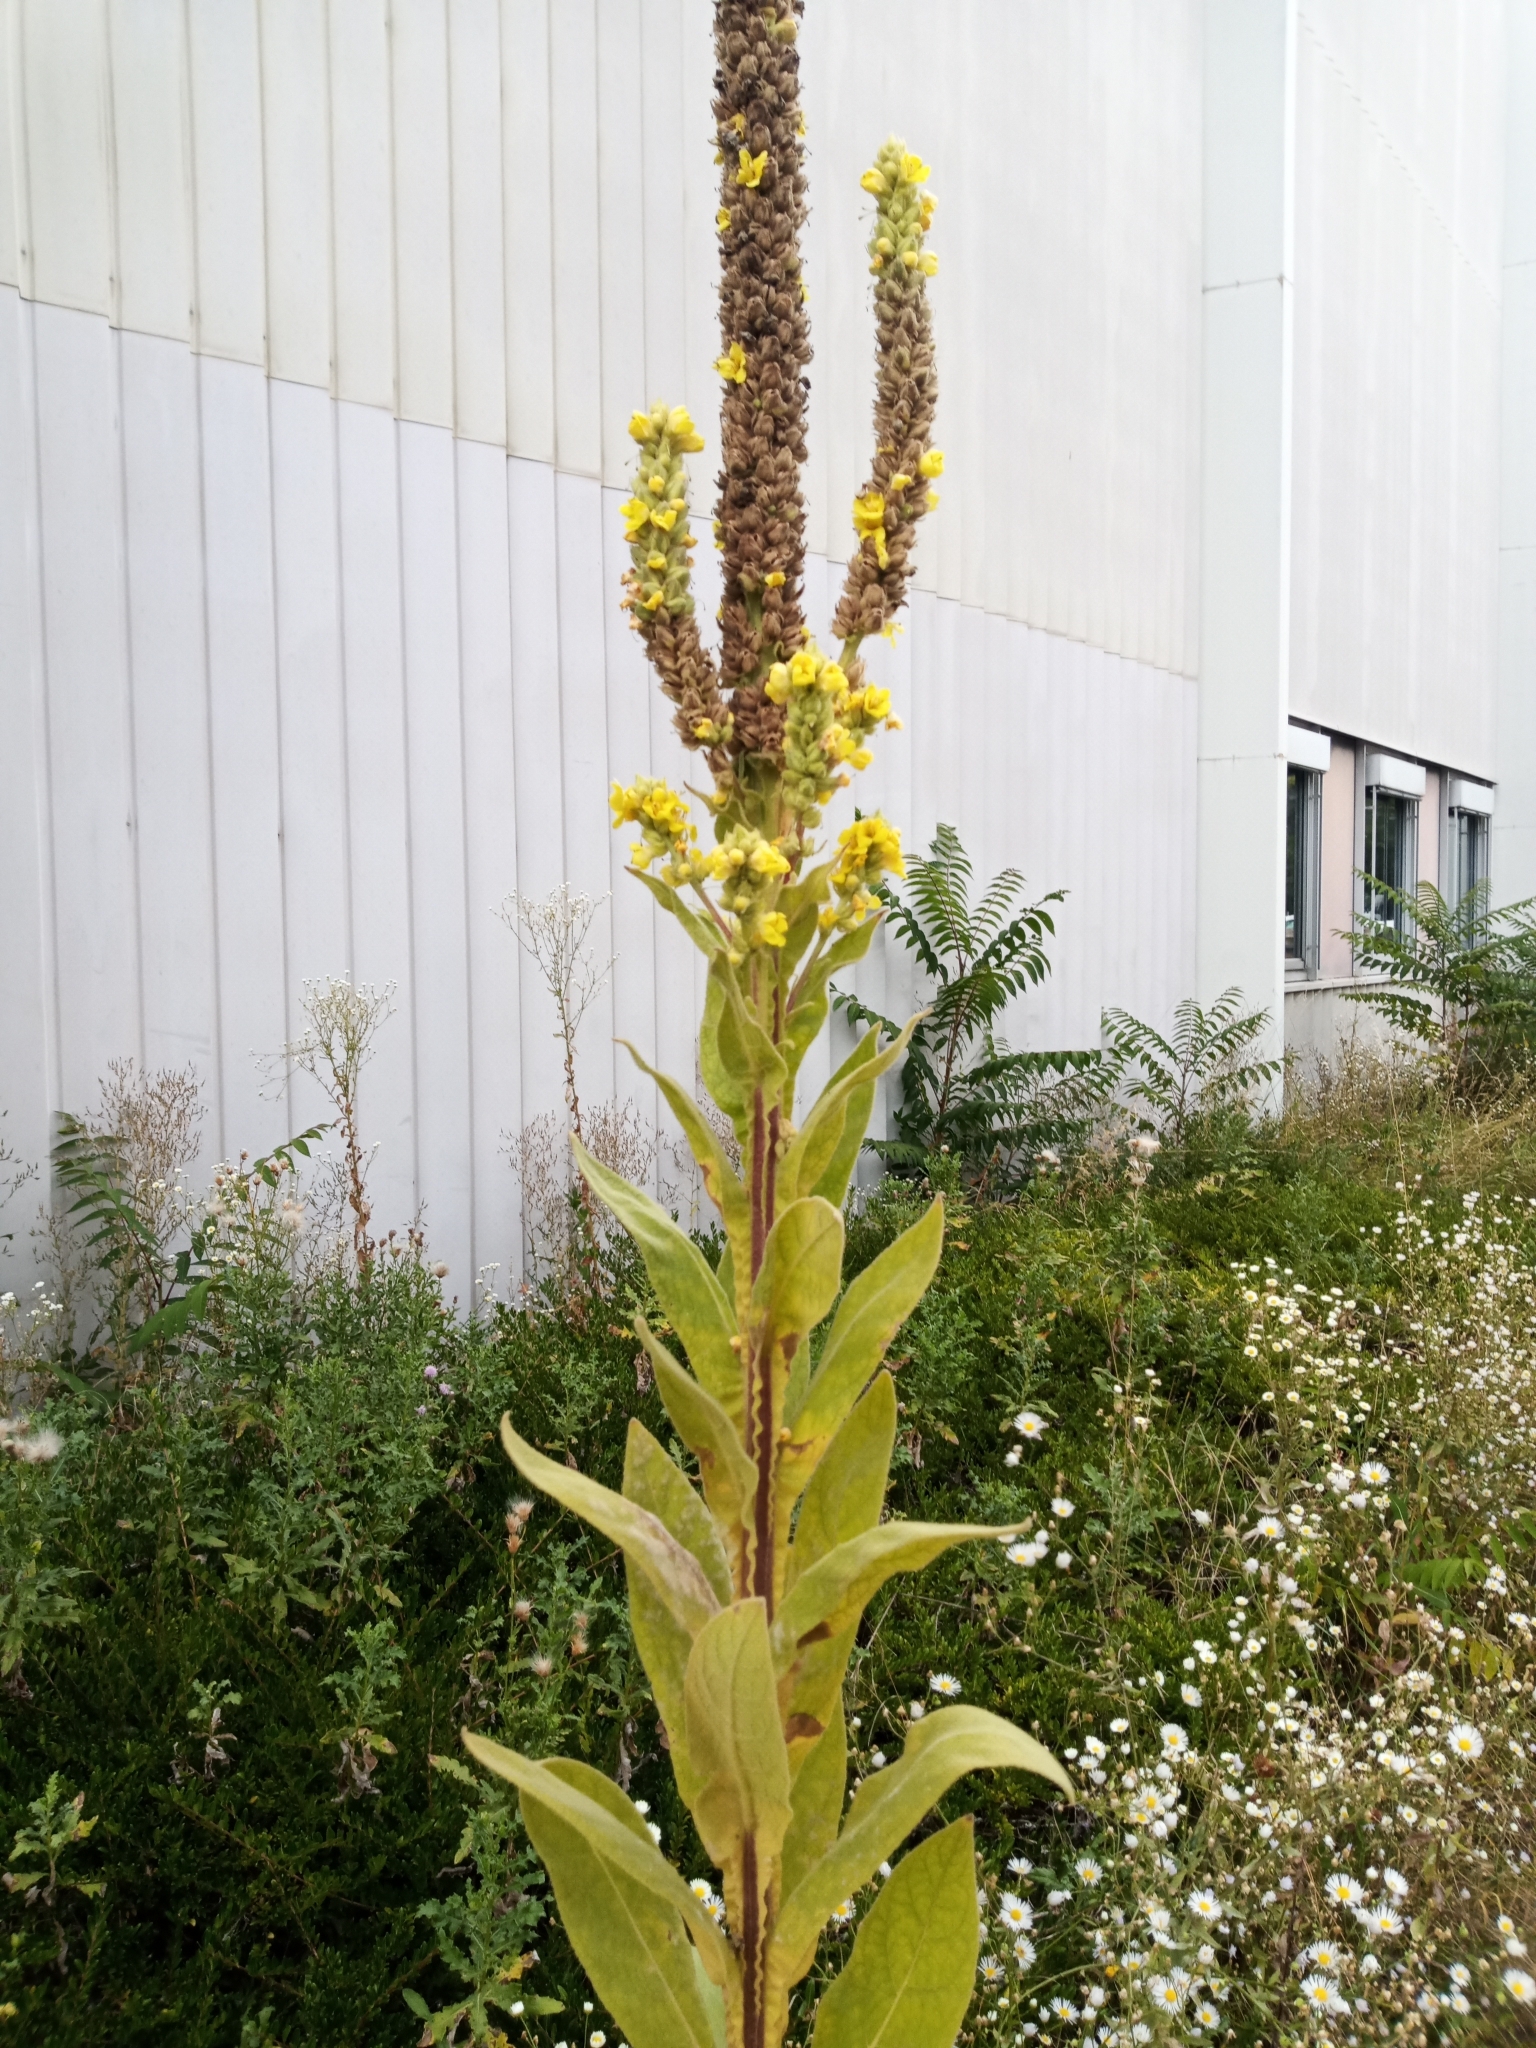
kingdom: Plantae
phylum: Tracheophyta
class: Magnoliopsida
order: Lamiales
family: Scrophulariaceae
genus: Verbascum
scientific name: Verbascum thapsus
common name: Common mullein
